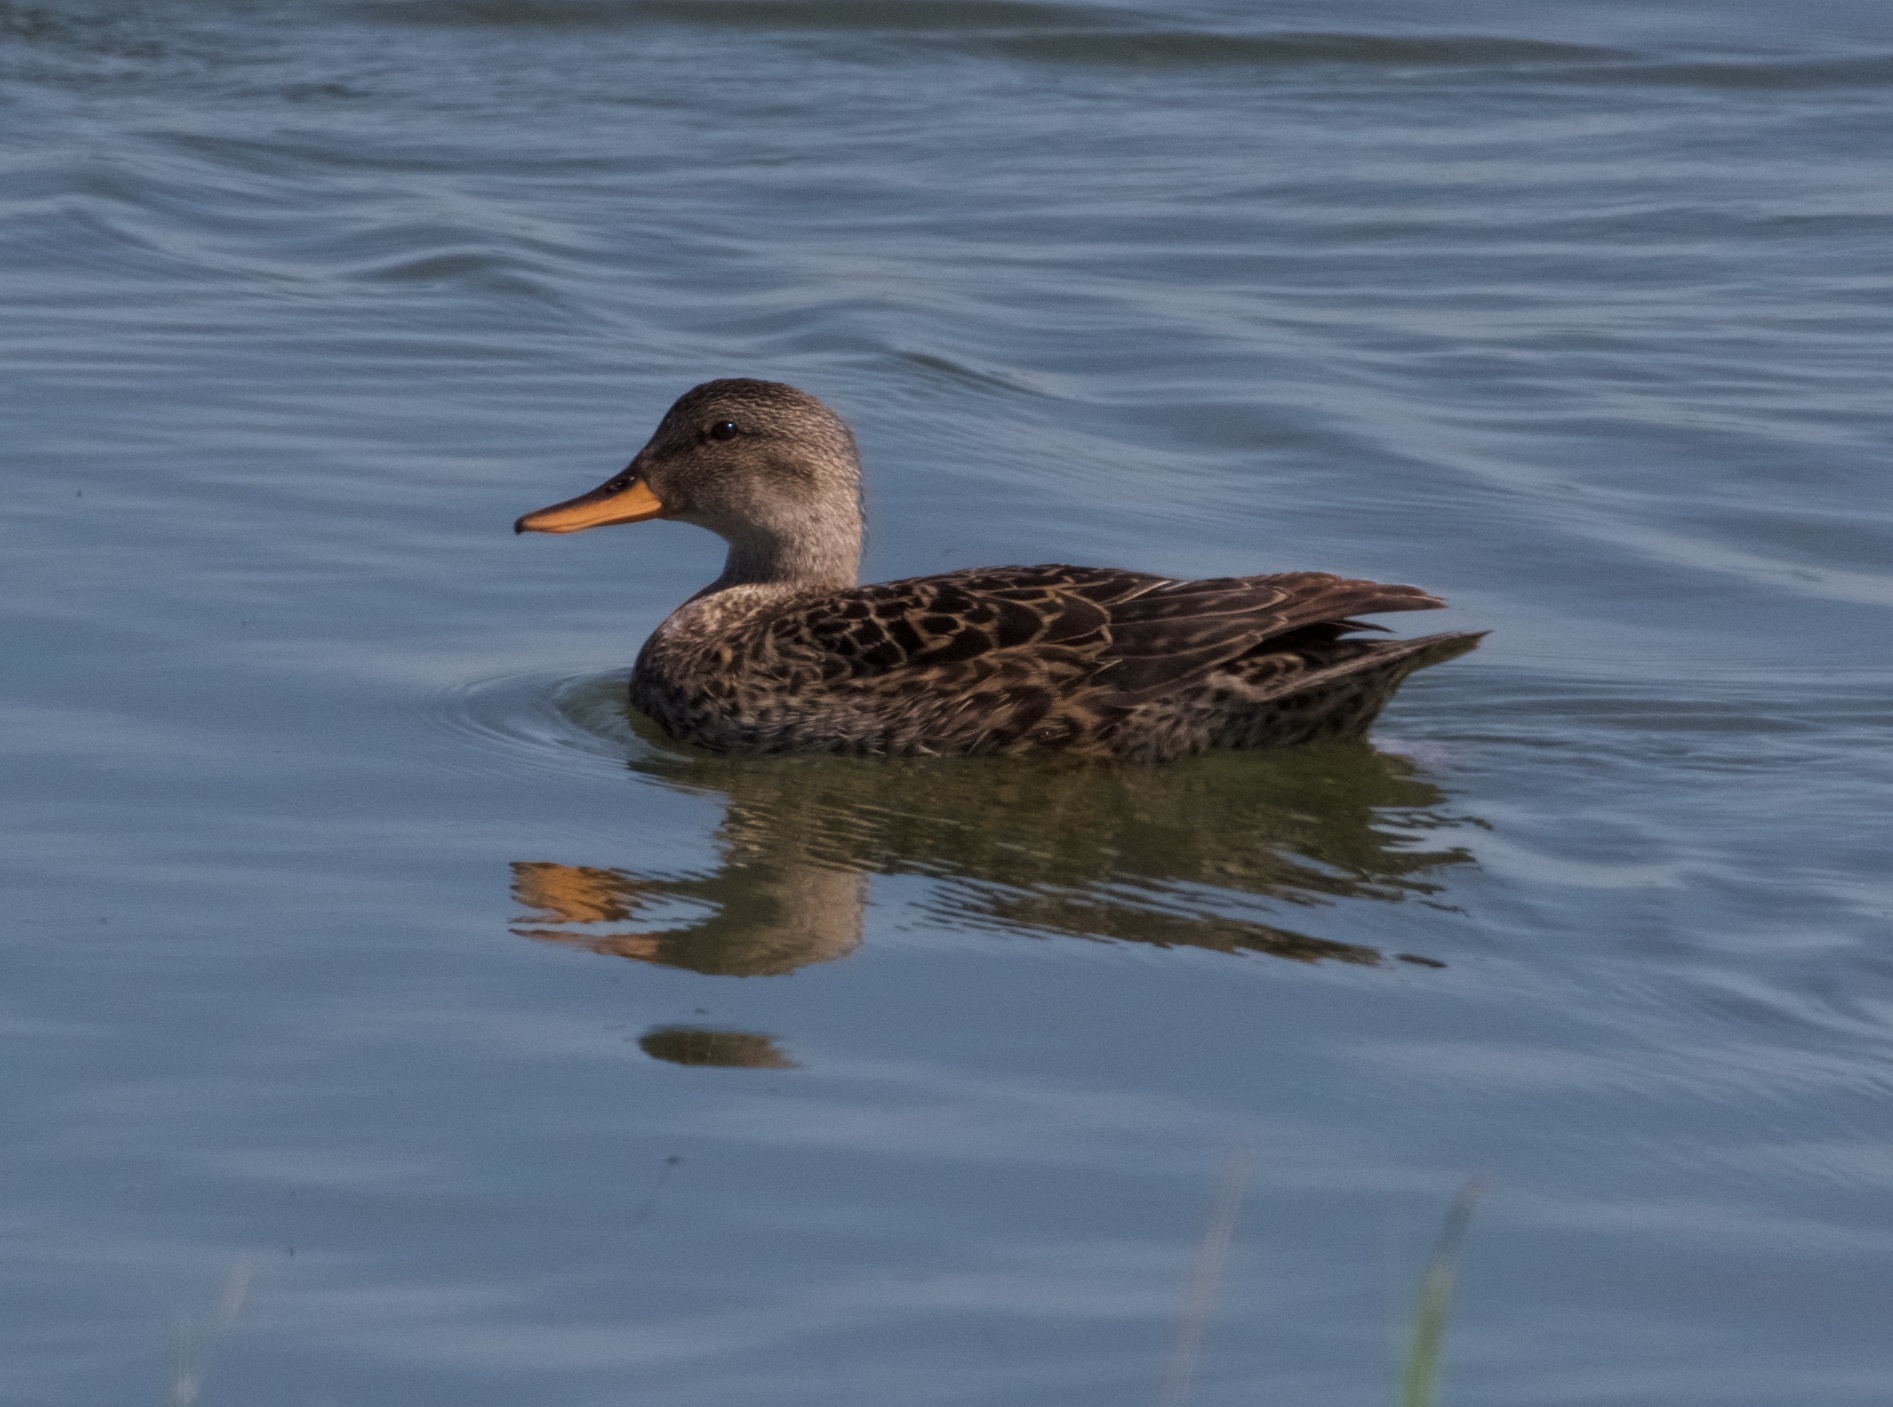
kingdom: Animalia
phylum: Chordata
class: Aves
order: Anseriformes
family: Anatidae
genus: Mareca
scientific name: Mareca strepera
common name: Gadwall
